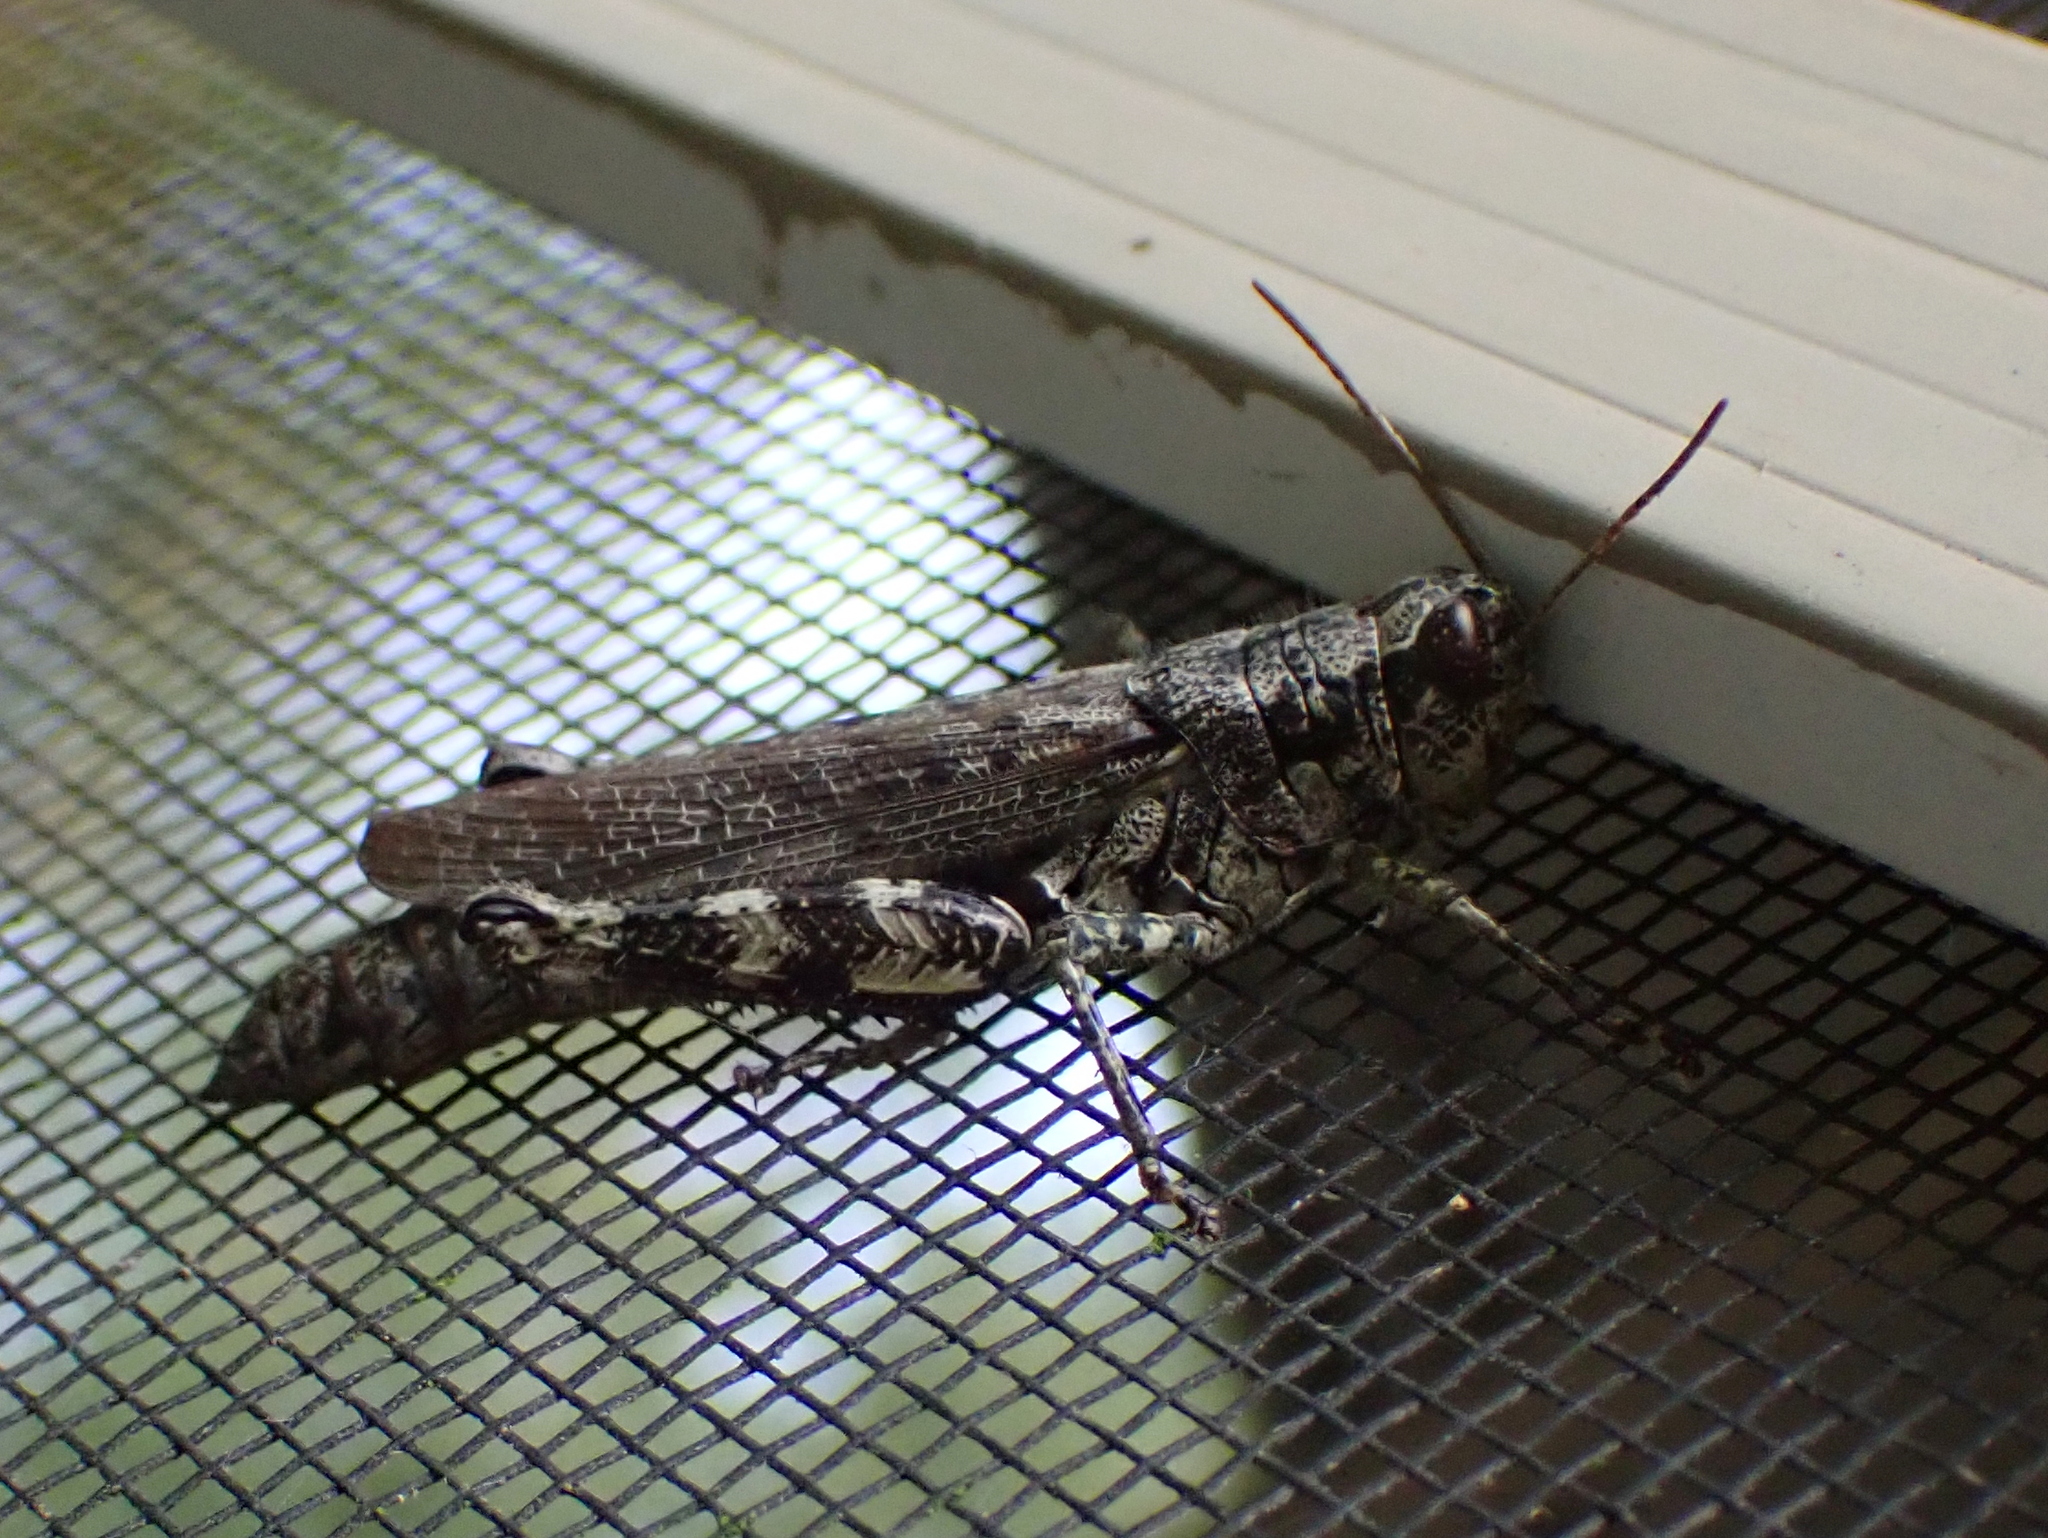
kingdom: Animalia
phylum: Arthropoda
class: Insecta
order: Orthoptera
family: Acrididae
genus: Melanoplus
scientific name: Melanoplus punctulatus
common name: Pine-tree spur-throat grasshopper
